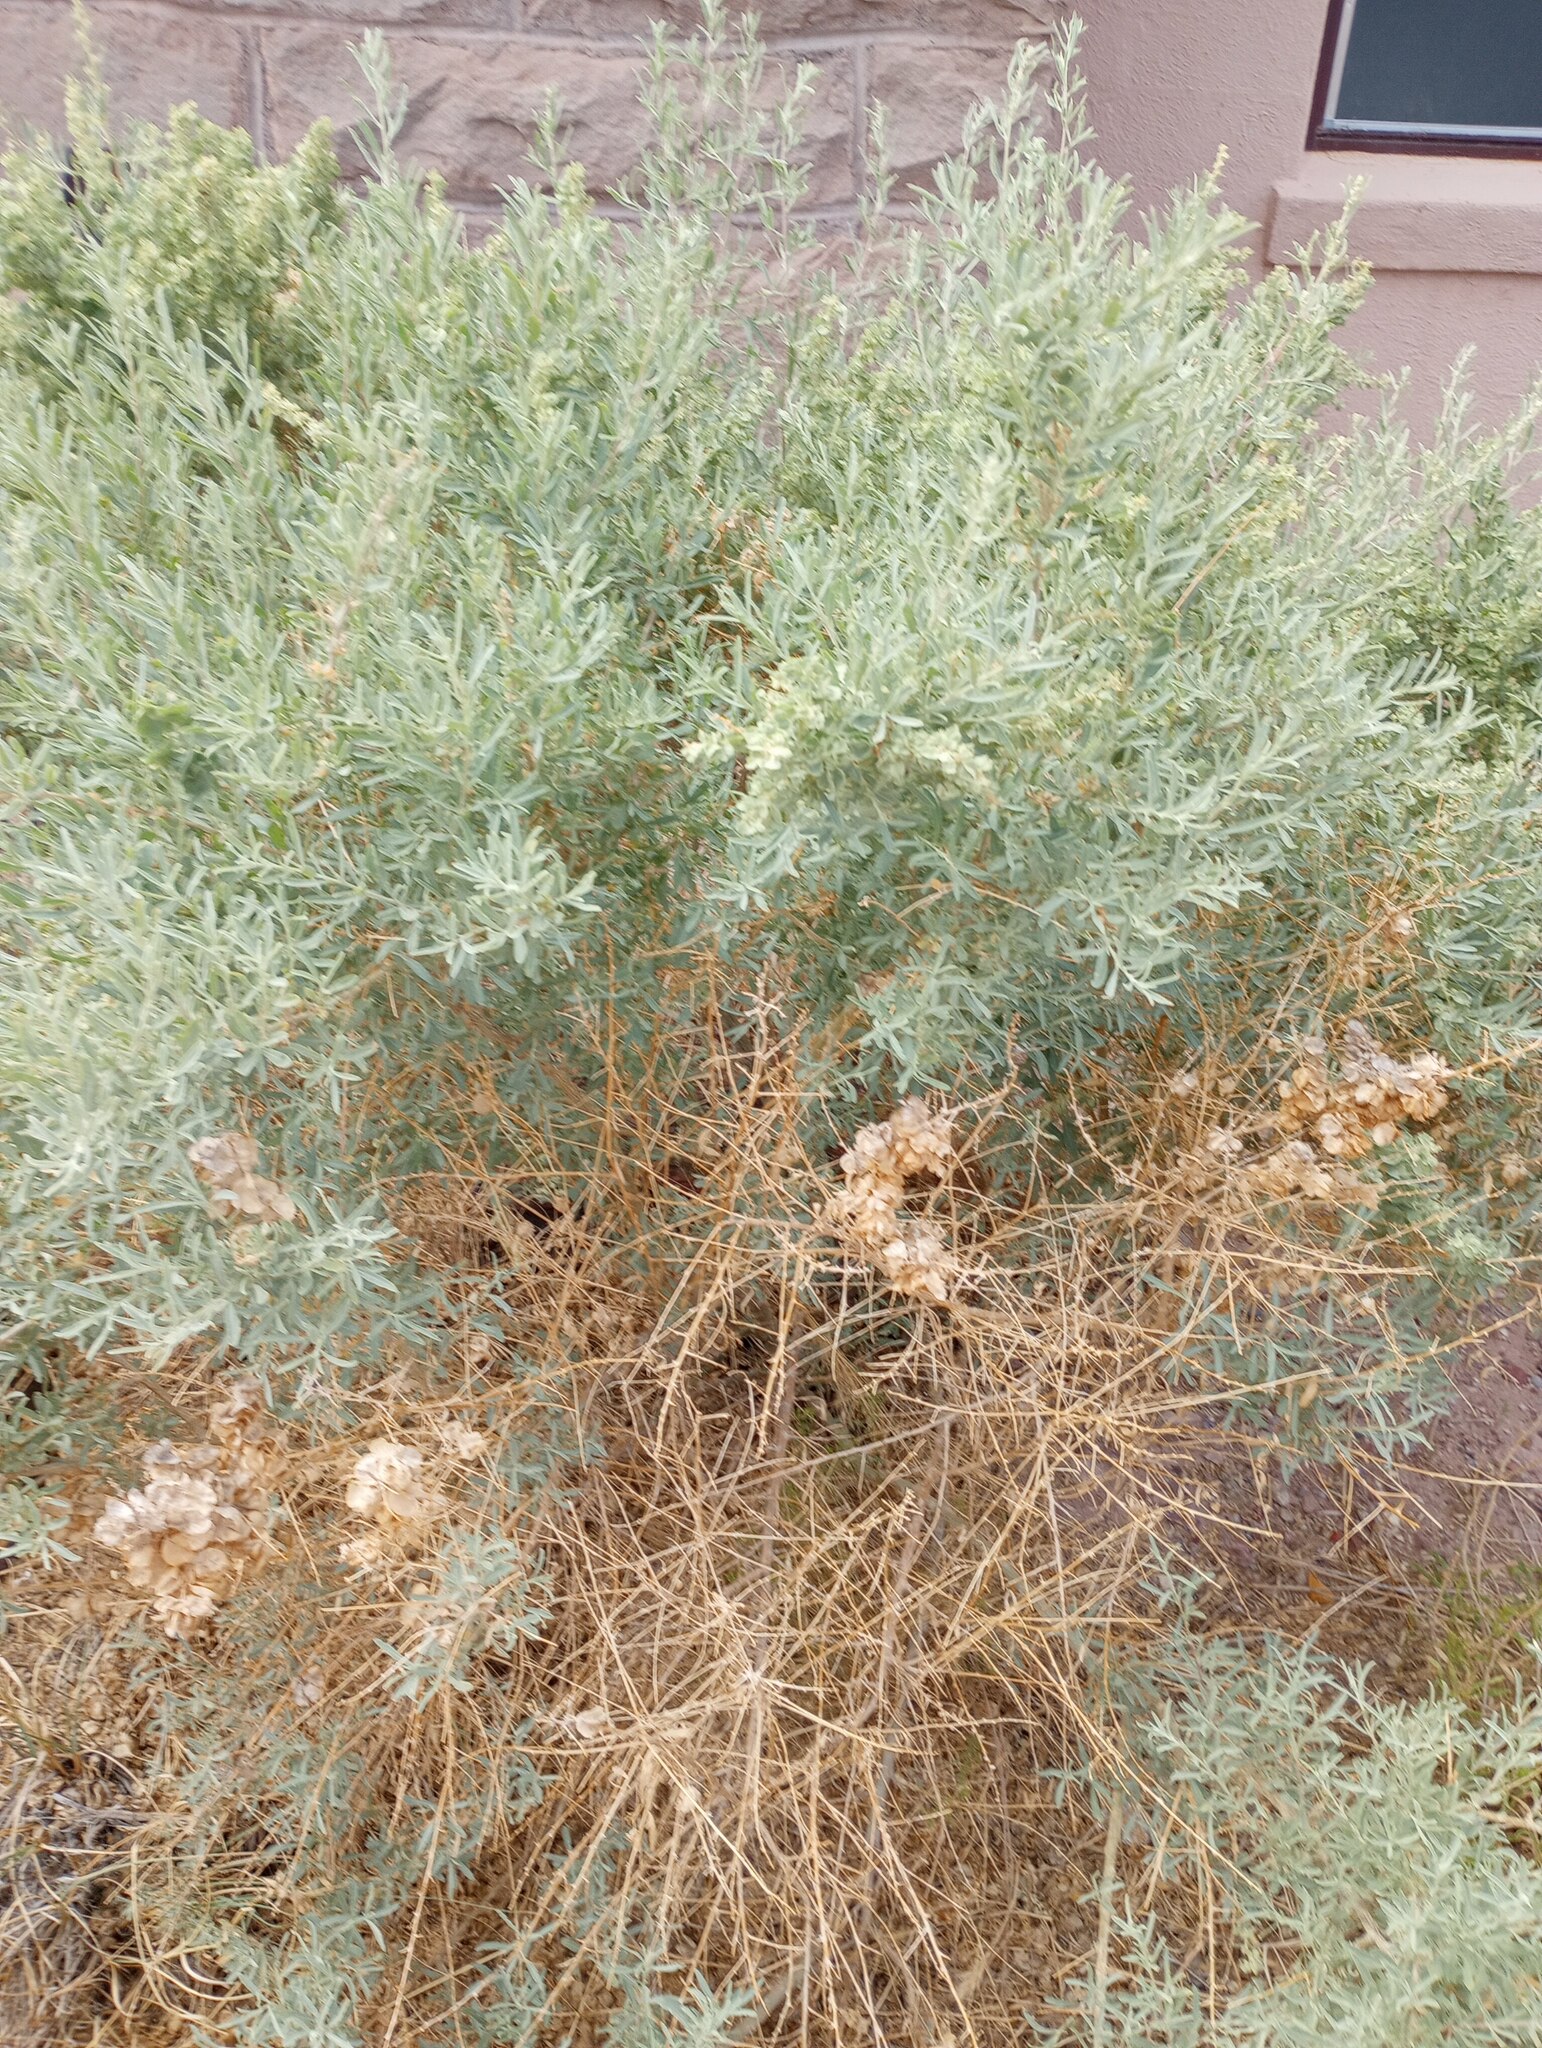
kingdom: Plantae
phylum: Tracheophyta
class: Magnoliopsida
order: Caryophyllales
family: Amaranthaceae
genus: Atriplex
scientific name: Atriplex canescens
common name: Four-wing saltbush
